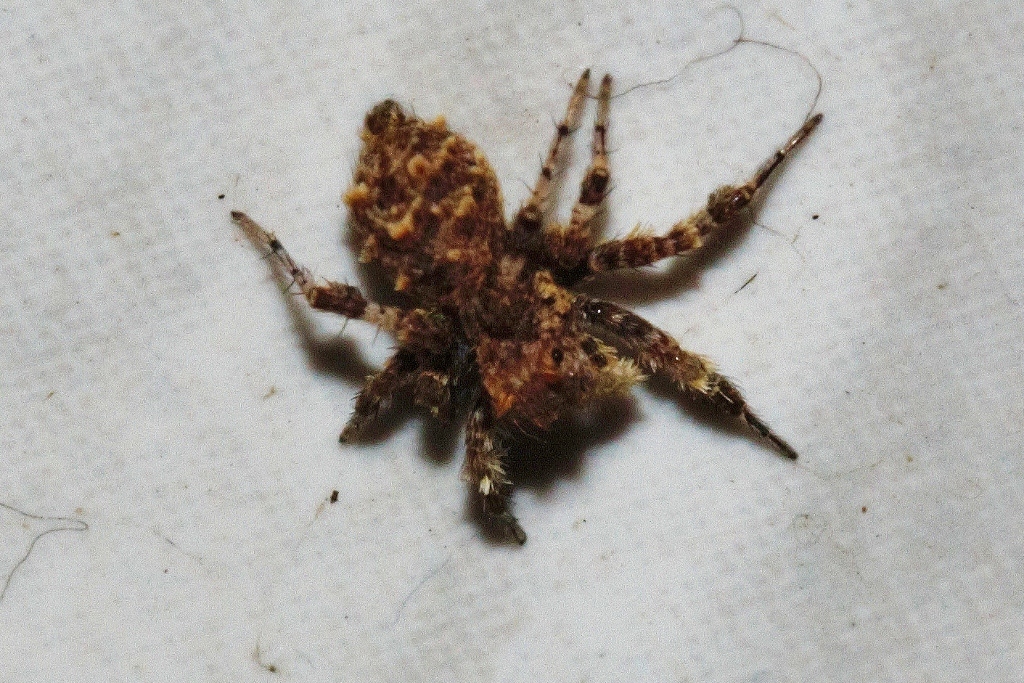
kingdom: Animalia
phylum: Arthropoda
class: Arachnida
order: Araneae
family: Salticidae
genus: Portia
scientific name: Portia schultzi
